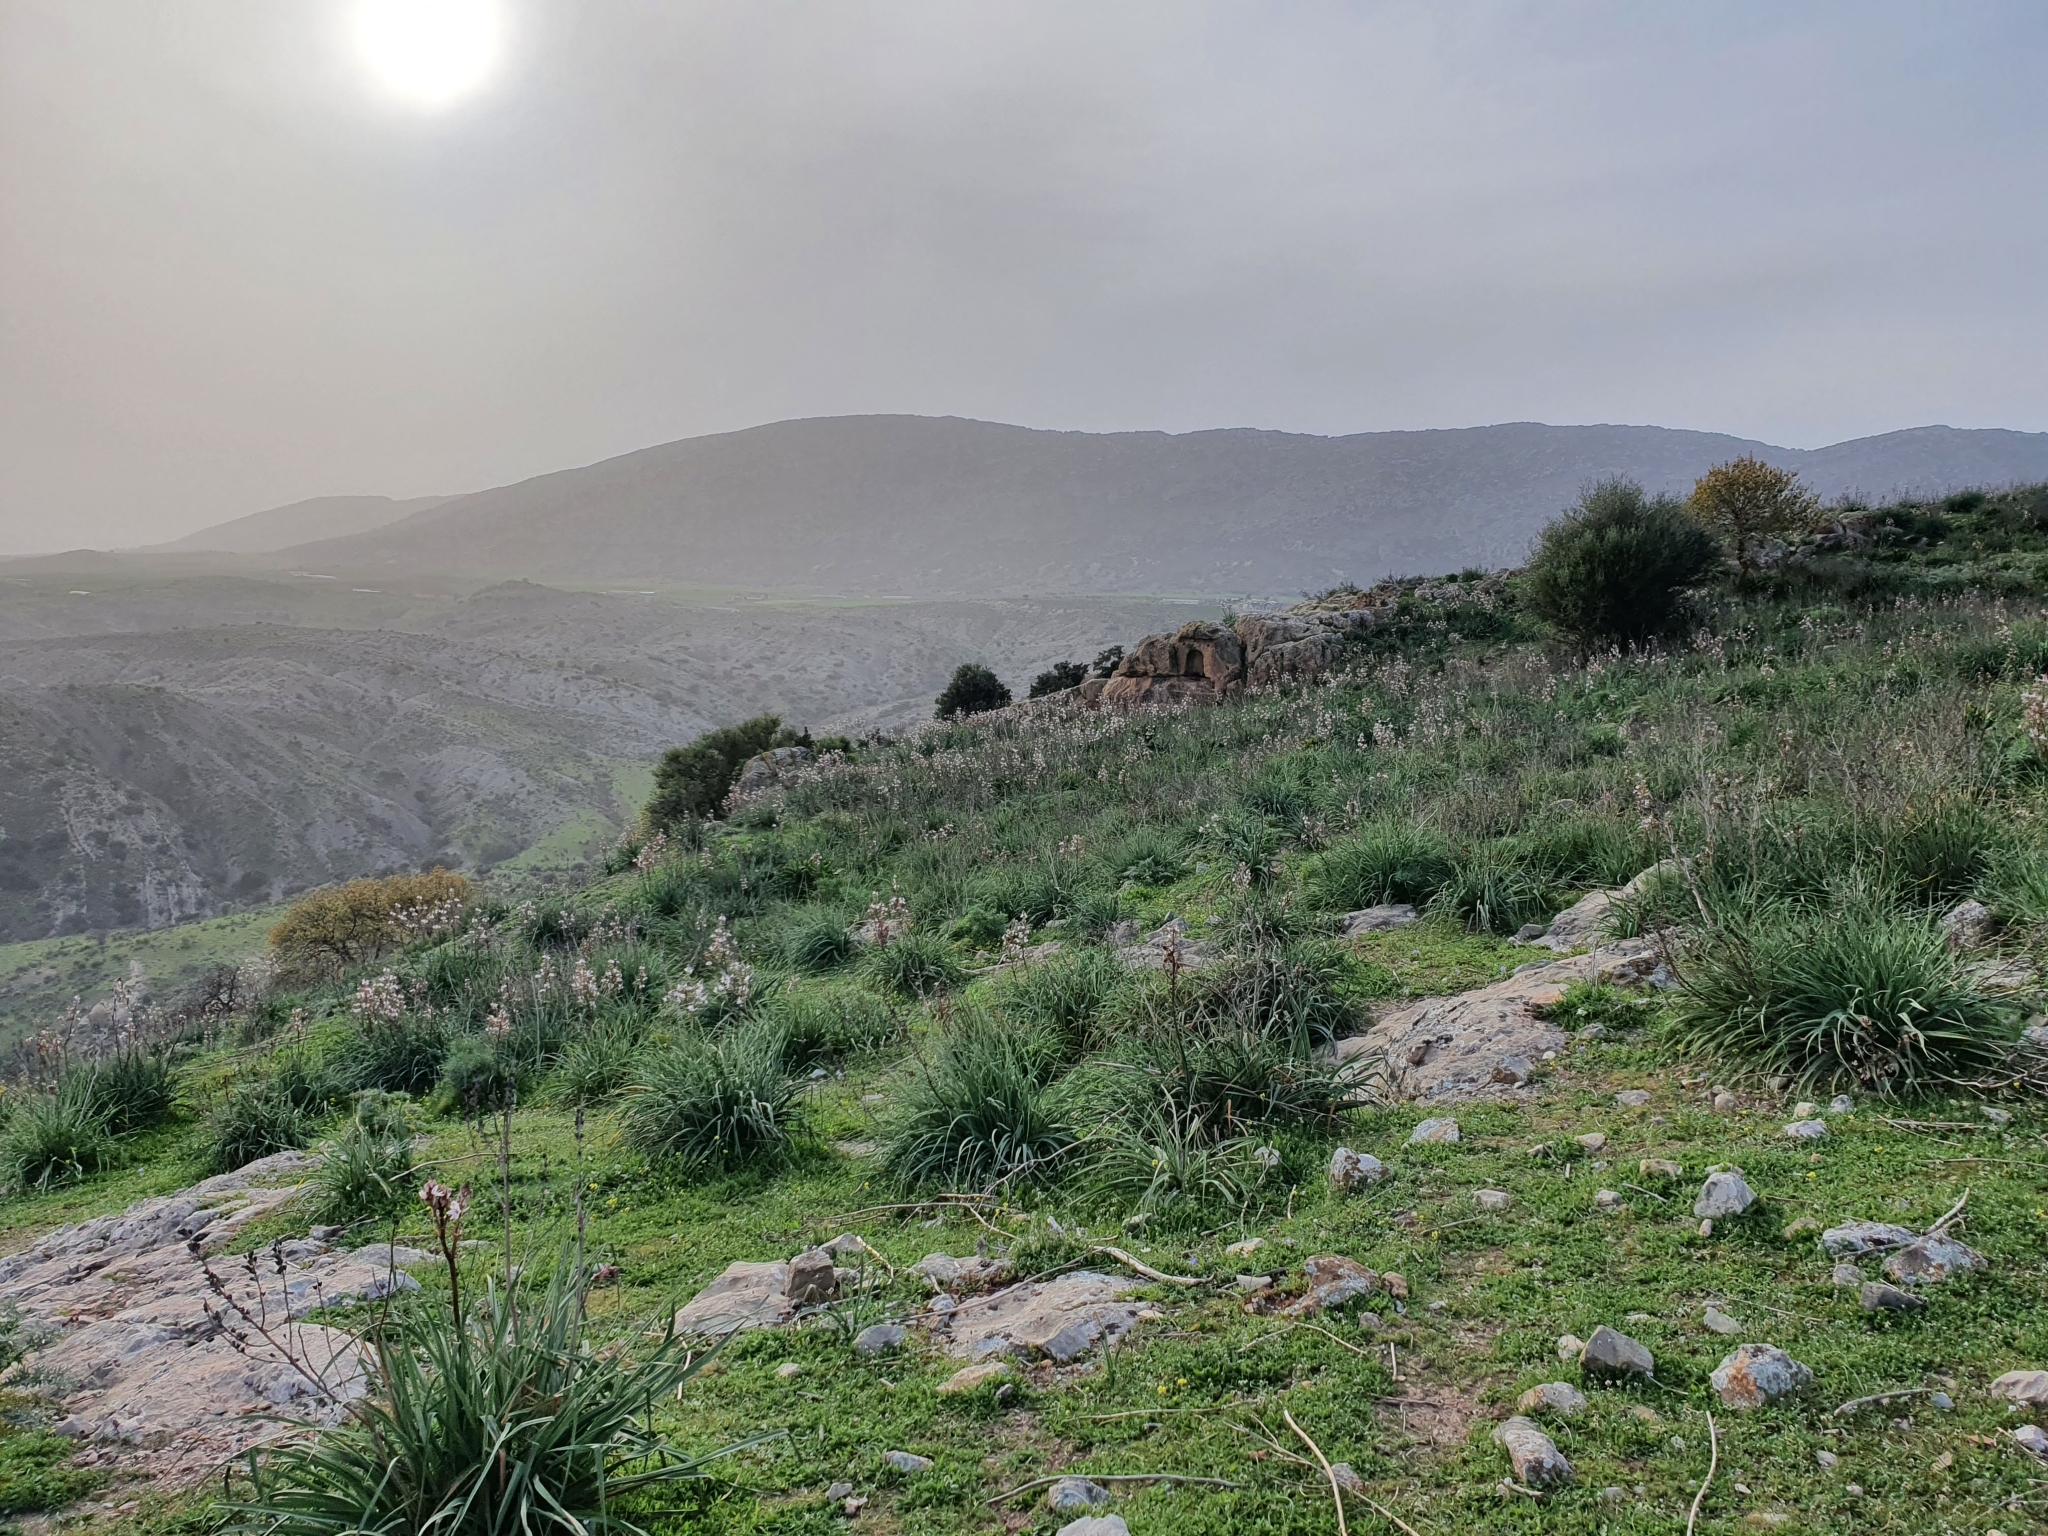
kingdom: Plantae
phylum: Tracheophyta
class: Liliopsida
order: Asparagales
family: Asphodelaceae
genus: Asphodelus
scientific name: Asphodelus ramosus
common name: Silverrod
